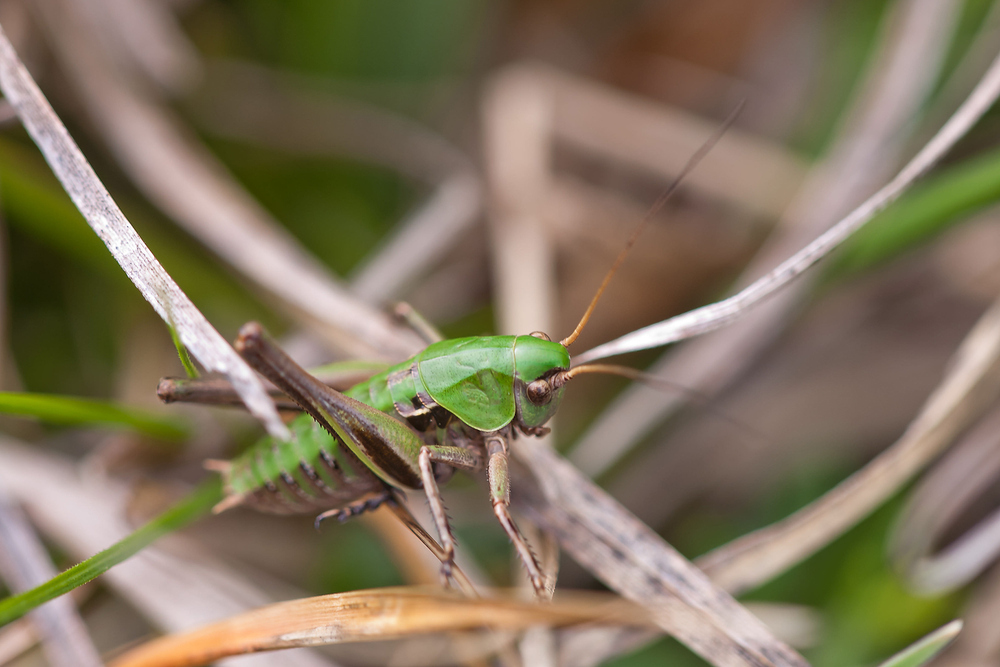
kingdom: Animalia
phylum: Arthropoda
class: Insecta
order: Orthoptera
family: Tettigoniidae
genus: Decticus
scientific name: Decticus verrucivorus
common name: Wart-biter
